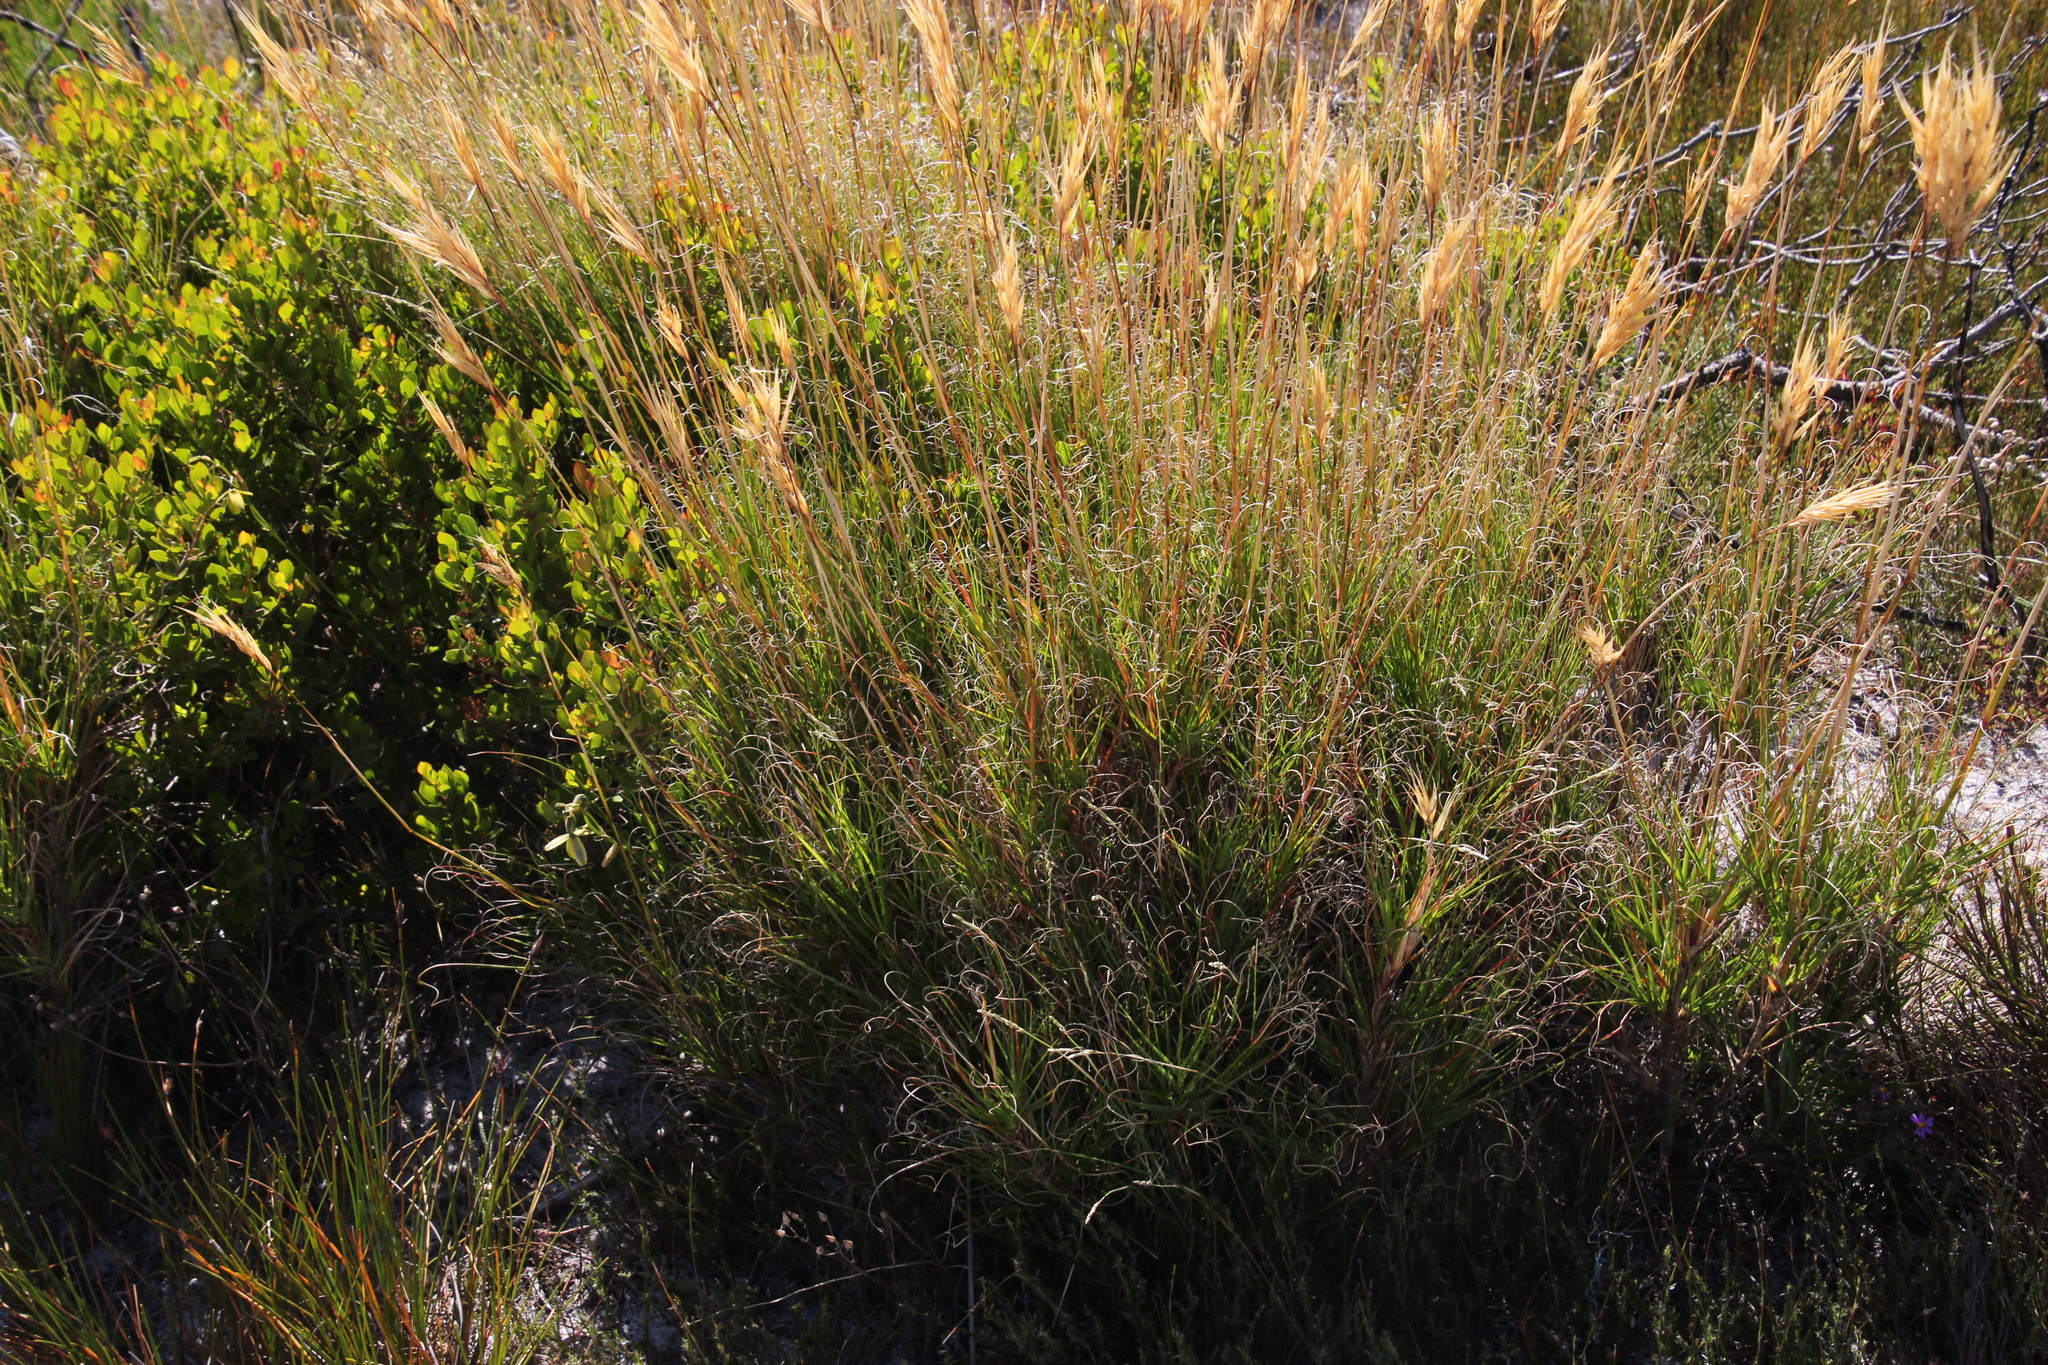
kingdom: Plantae
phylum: Tracheophyta
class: Liliopsida
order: Poales
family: Poaceae
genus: Pseudopentameris
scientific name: Pseudopentameris macrantha
